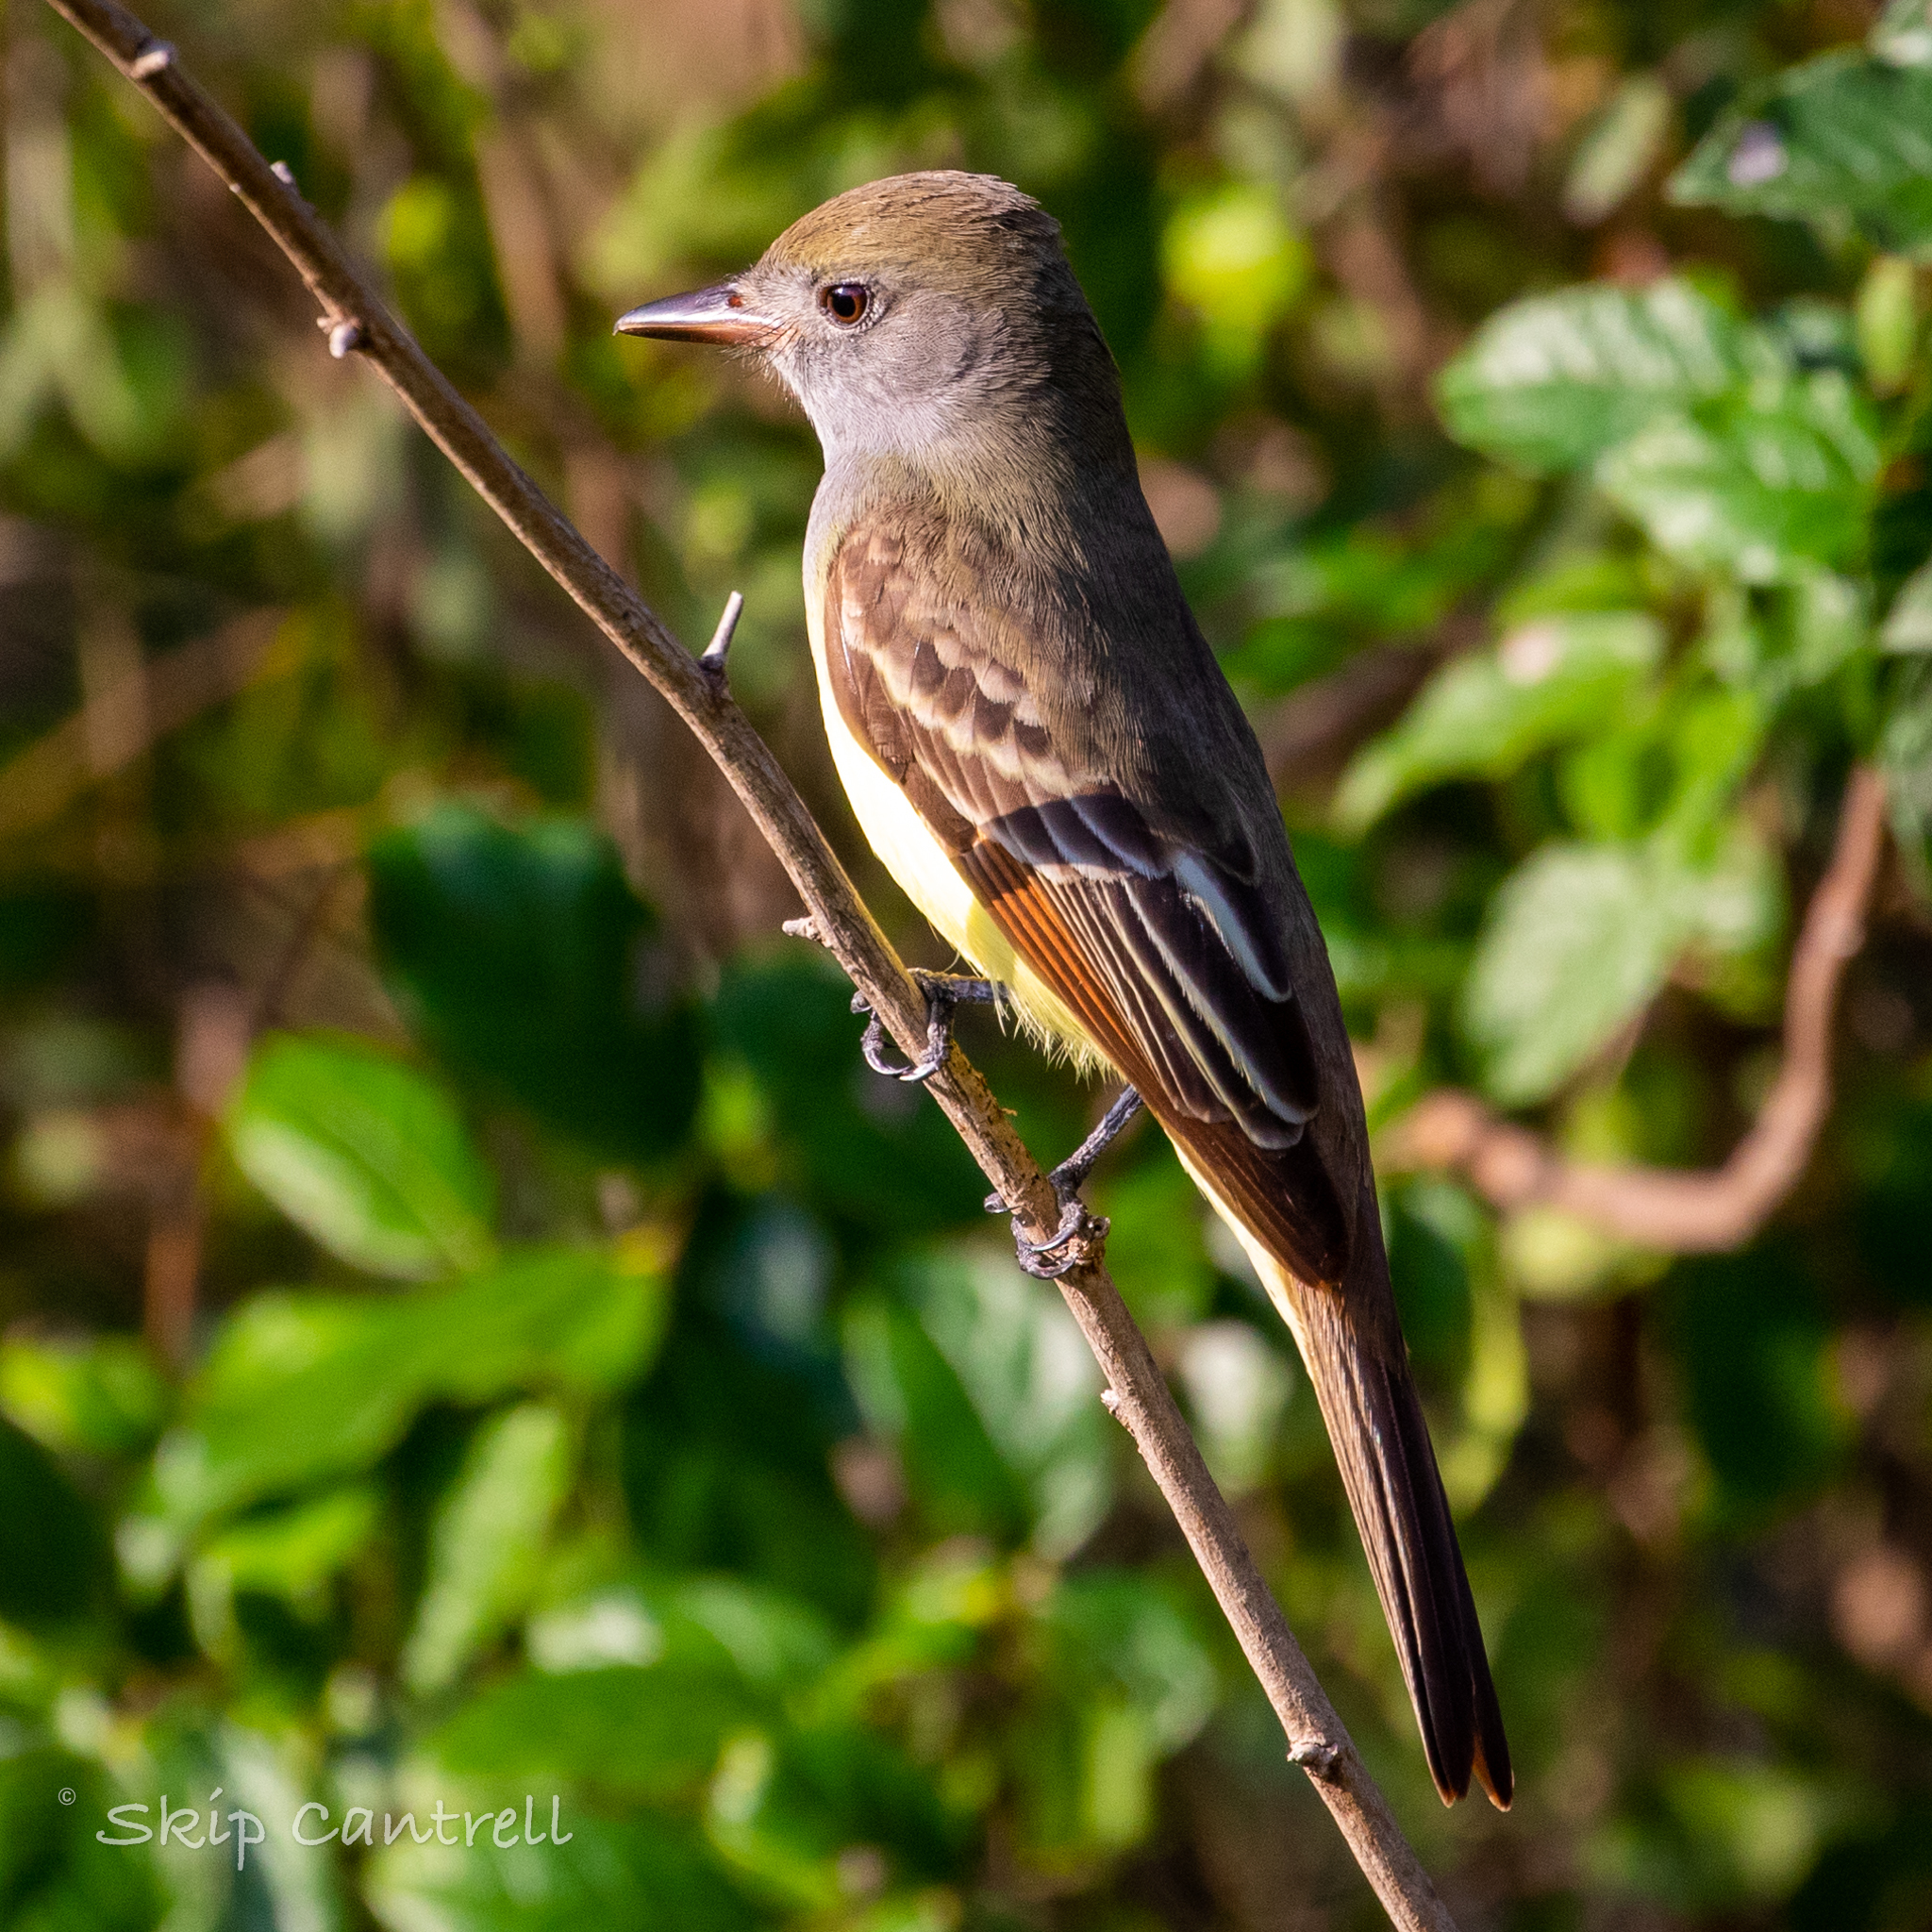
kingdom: Animalia
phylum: Chordata
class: Aves
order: Passeriformes
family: Tyrannidae
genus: Myiarchus
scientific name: Myiarchus crinitus
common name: Great crested flycatcher
